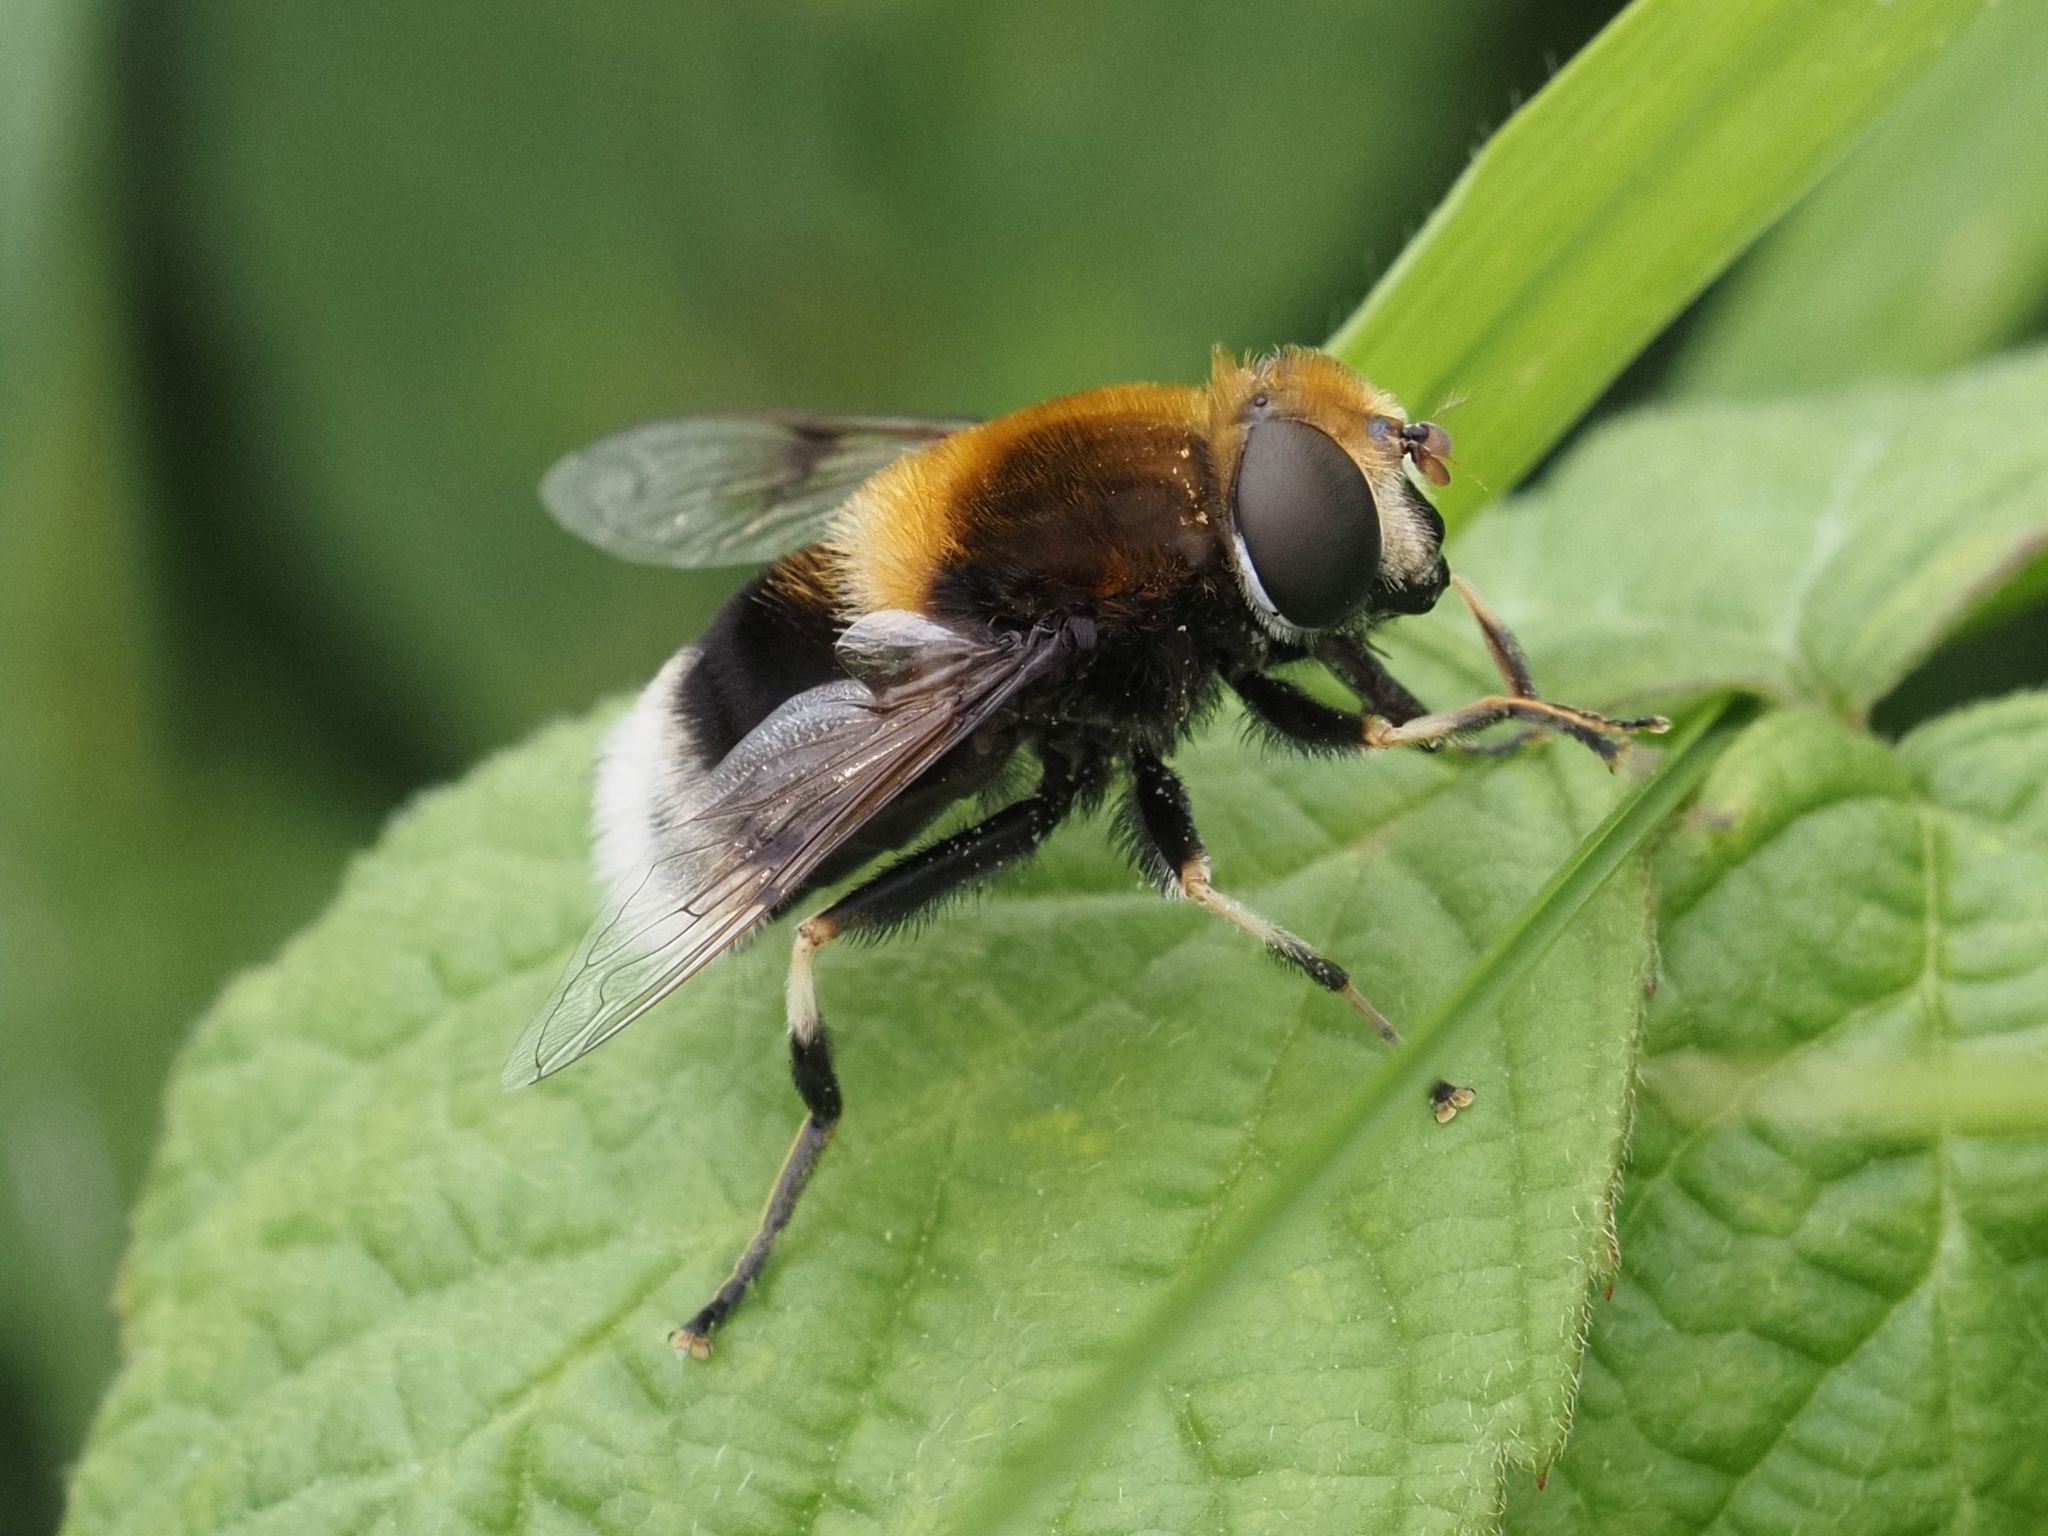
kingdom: Animalia
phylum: Arthropoda
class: Insecta
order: Diptera
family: Syrphidae
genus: Eristalis
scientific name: Eristalis intricaria
